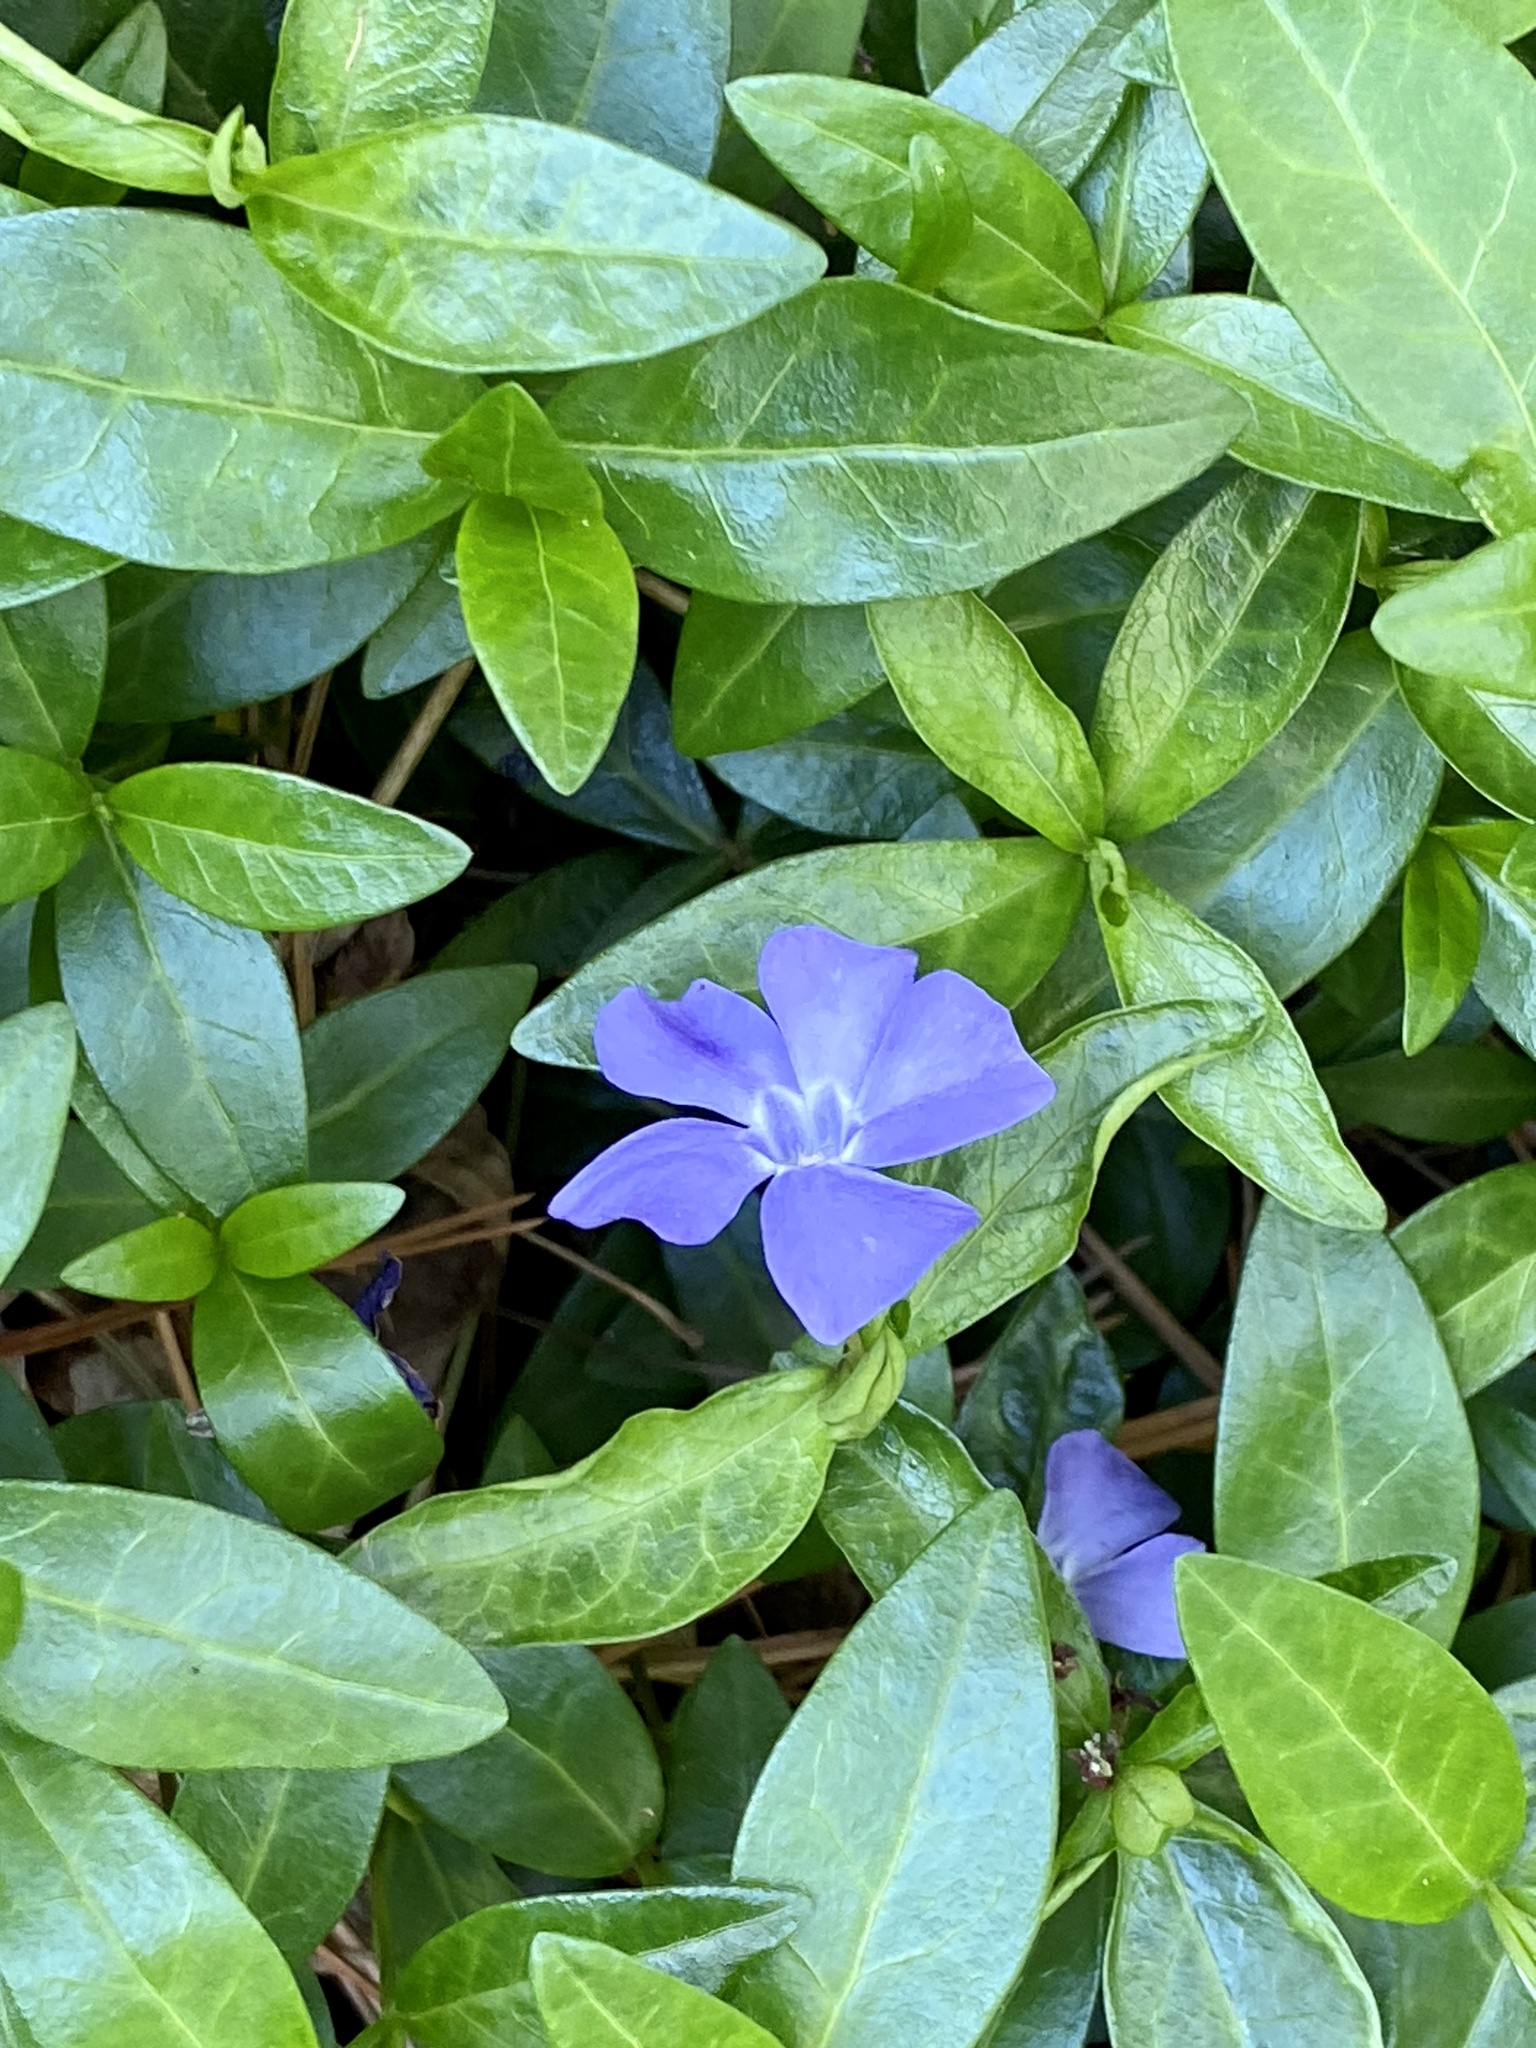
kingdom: Plantae
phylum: Tracheophyta
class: Magnoliopsida
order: Gentianales
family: Apocynaceae
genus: Vinca
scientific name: Vinca minor
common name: Lesser periwinkle
